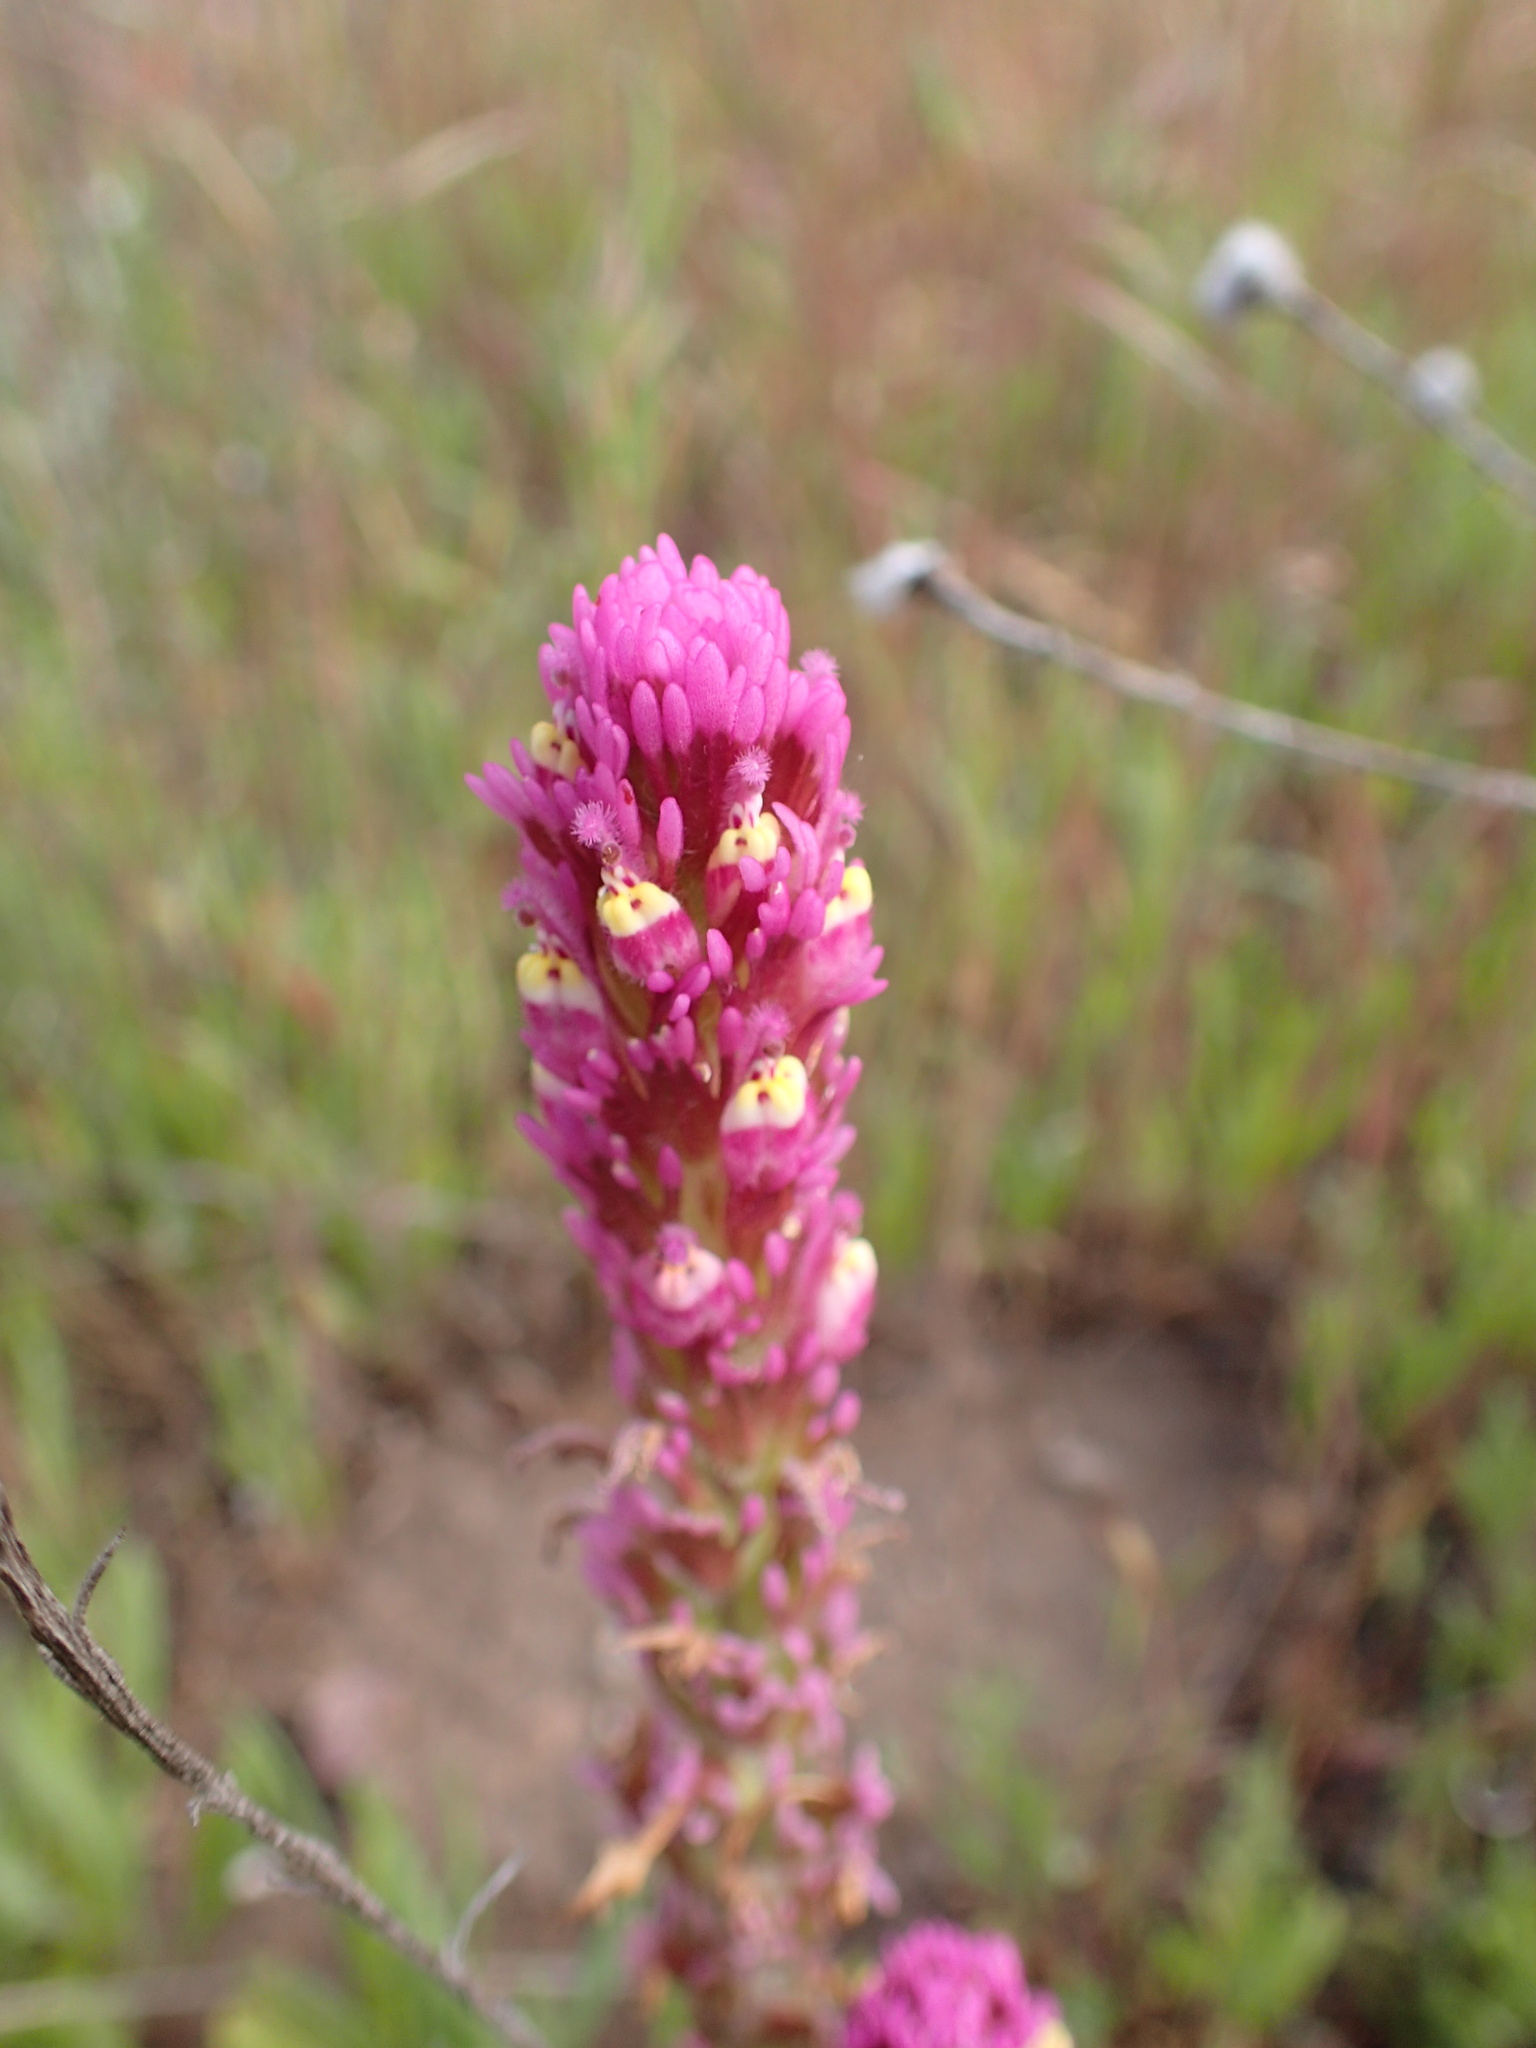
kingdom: Plantae
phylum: Tracheophyta
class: Magnoliopsida
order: Lamiales
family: Orobanchaceae
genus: Castilleja
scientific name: Castilleja exserta
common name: Purple owl-clover
